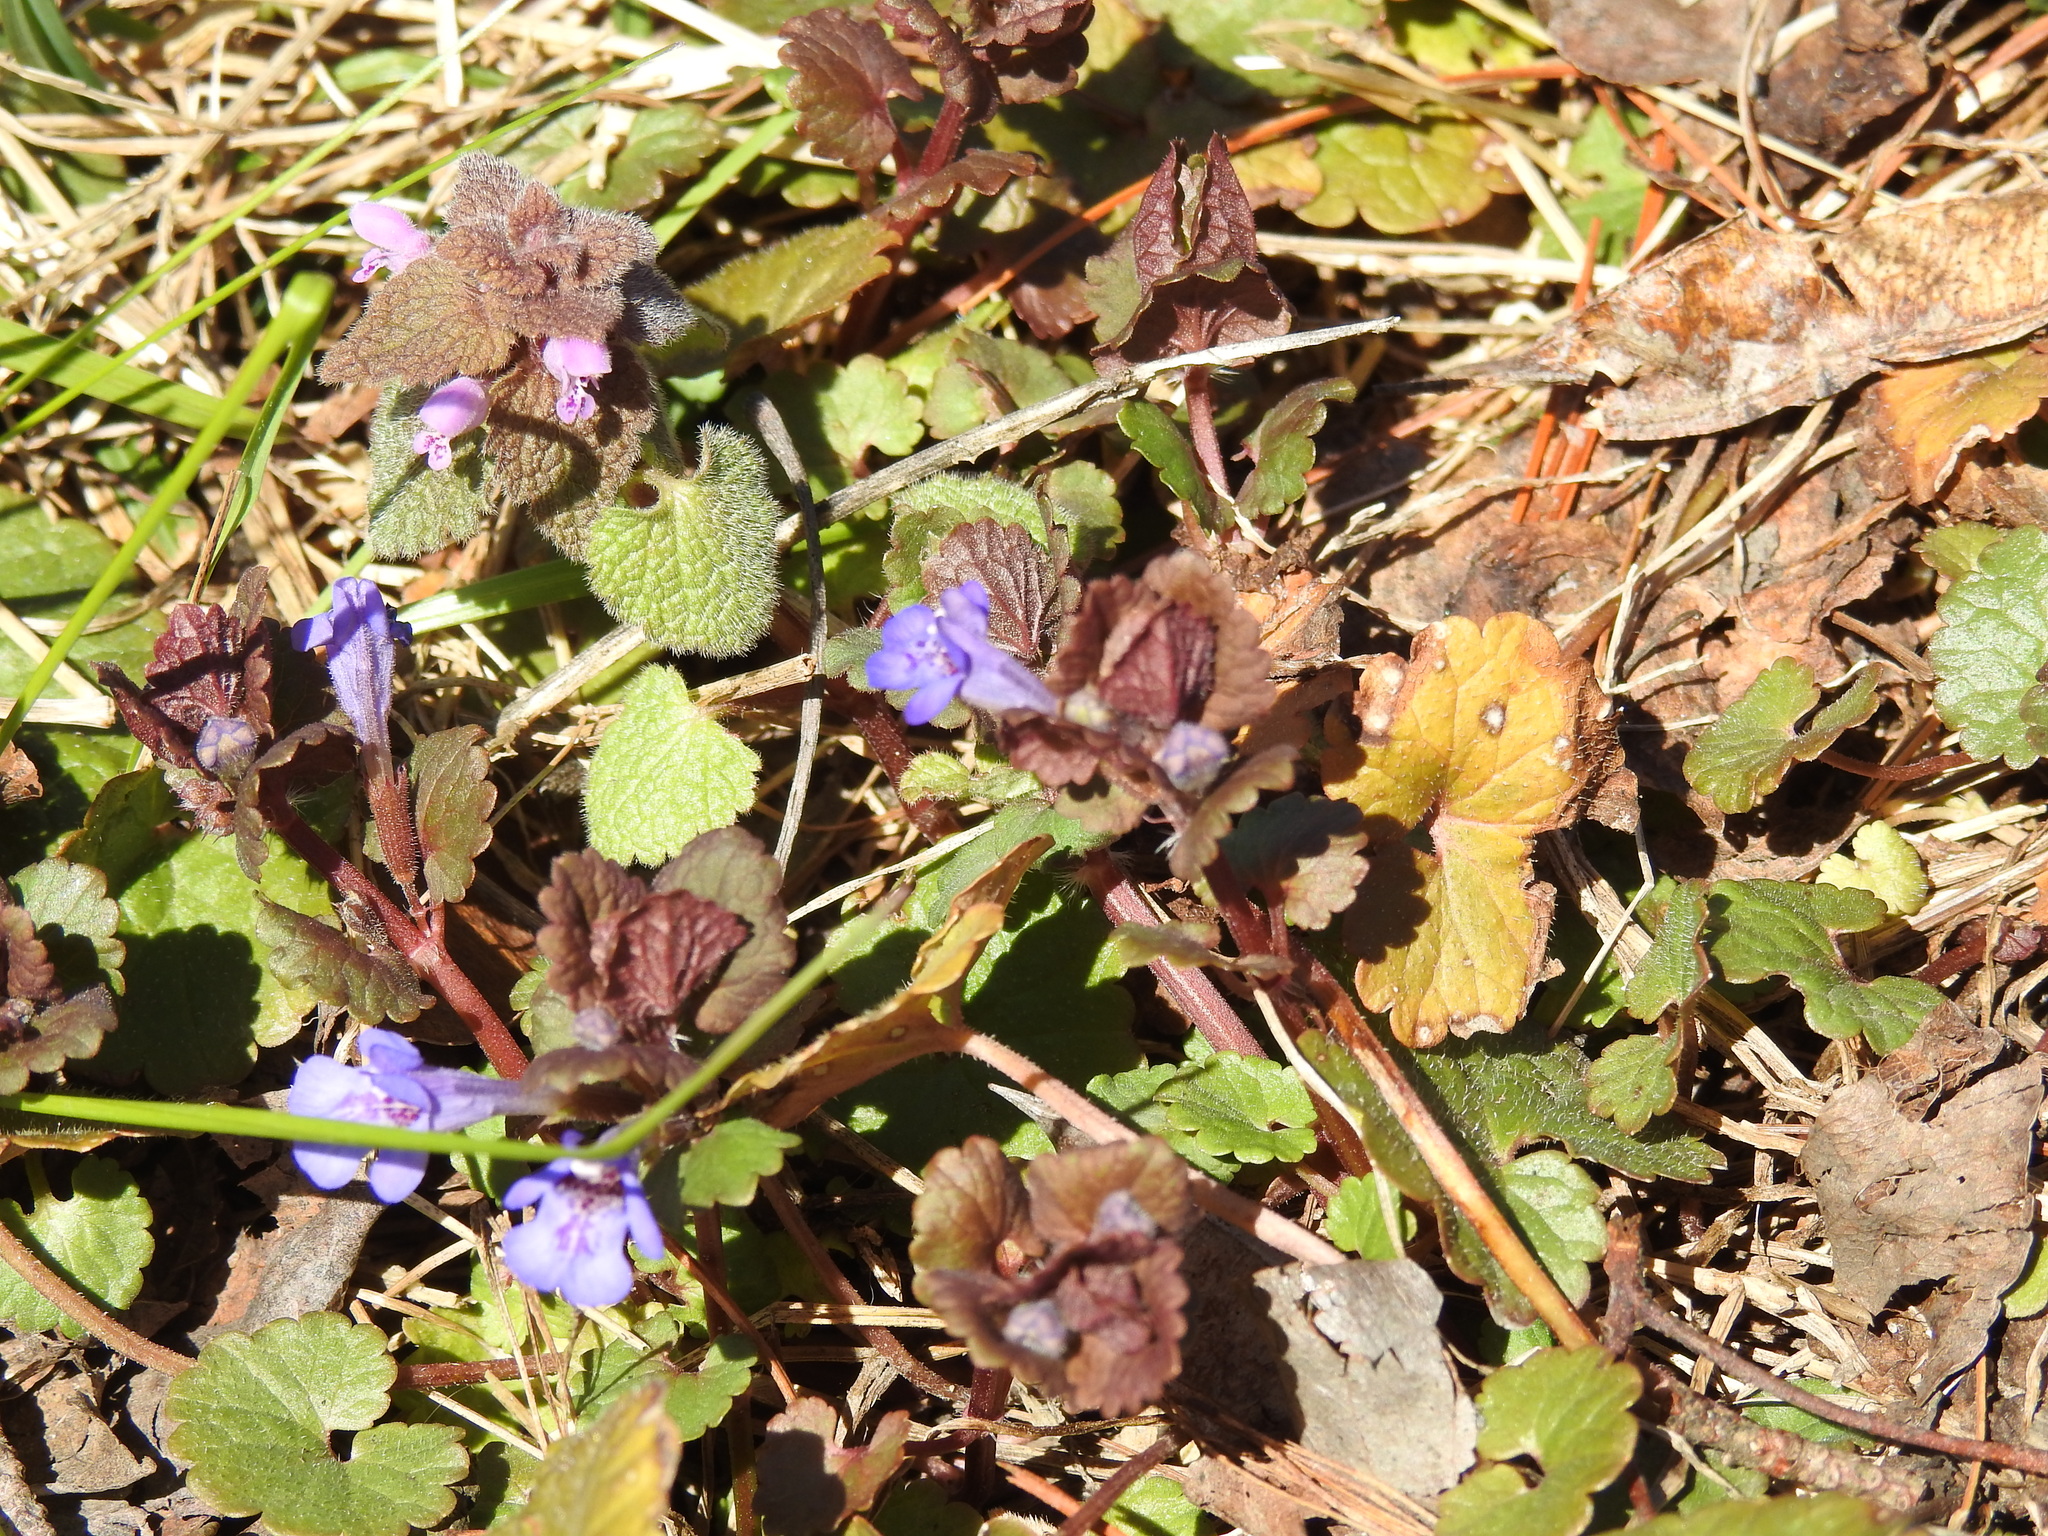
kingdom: Plantae
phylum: Tracheophyta
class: Magnoliopsida
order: Lamiales
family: Lamiaceae
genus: Glechoma
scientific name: Glechoma hederacea
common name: Ground ivy
